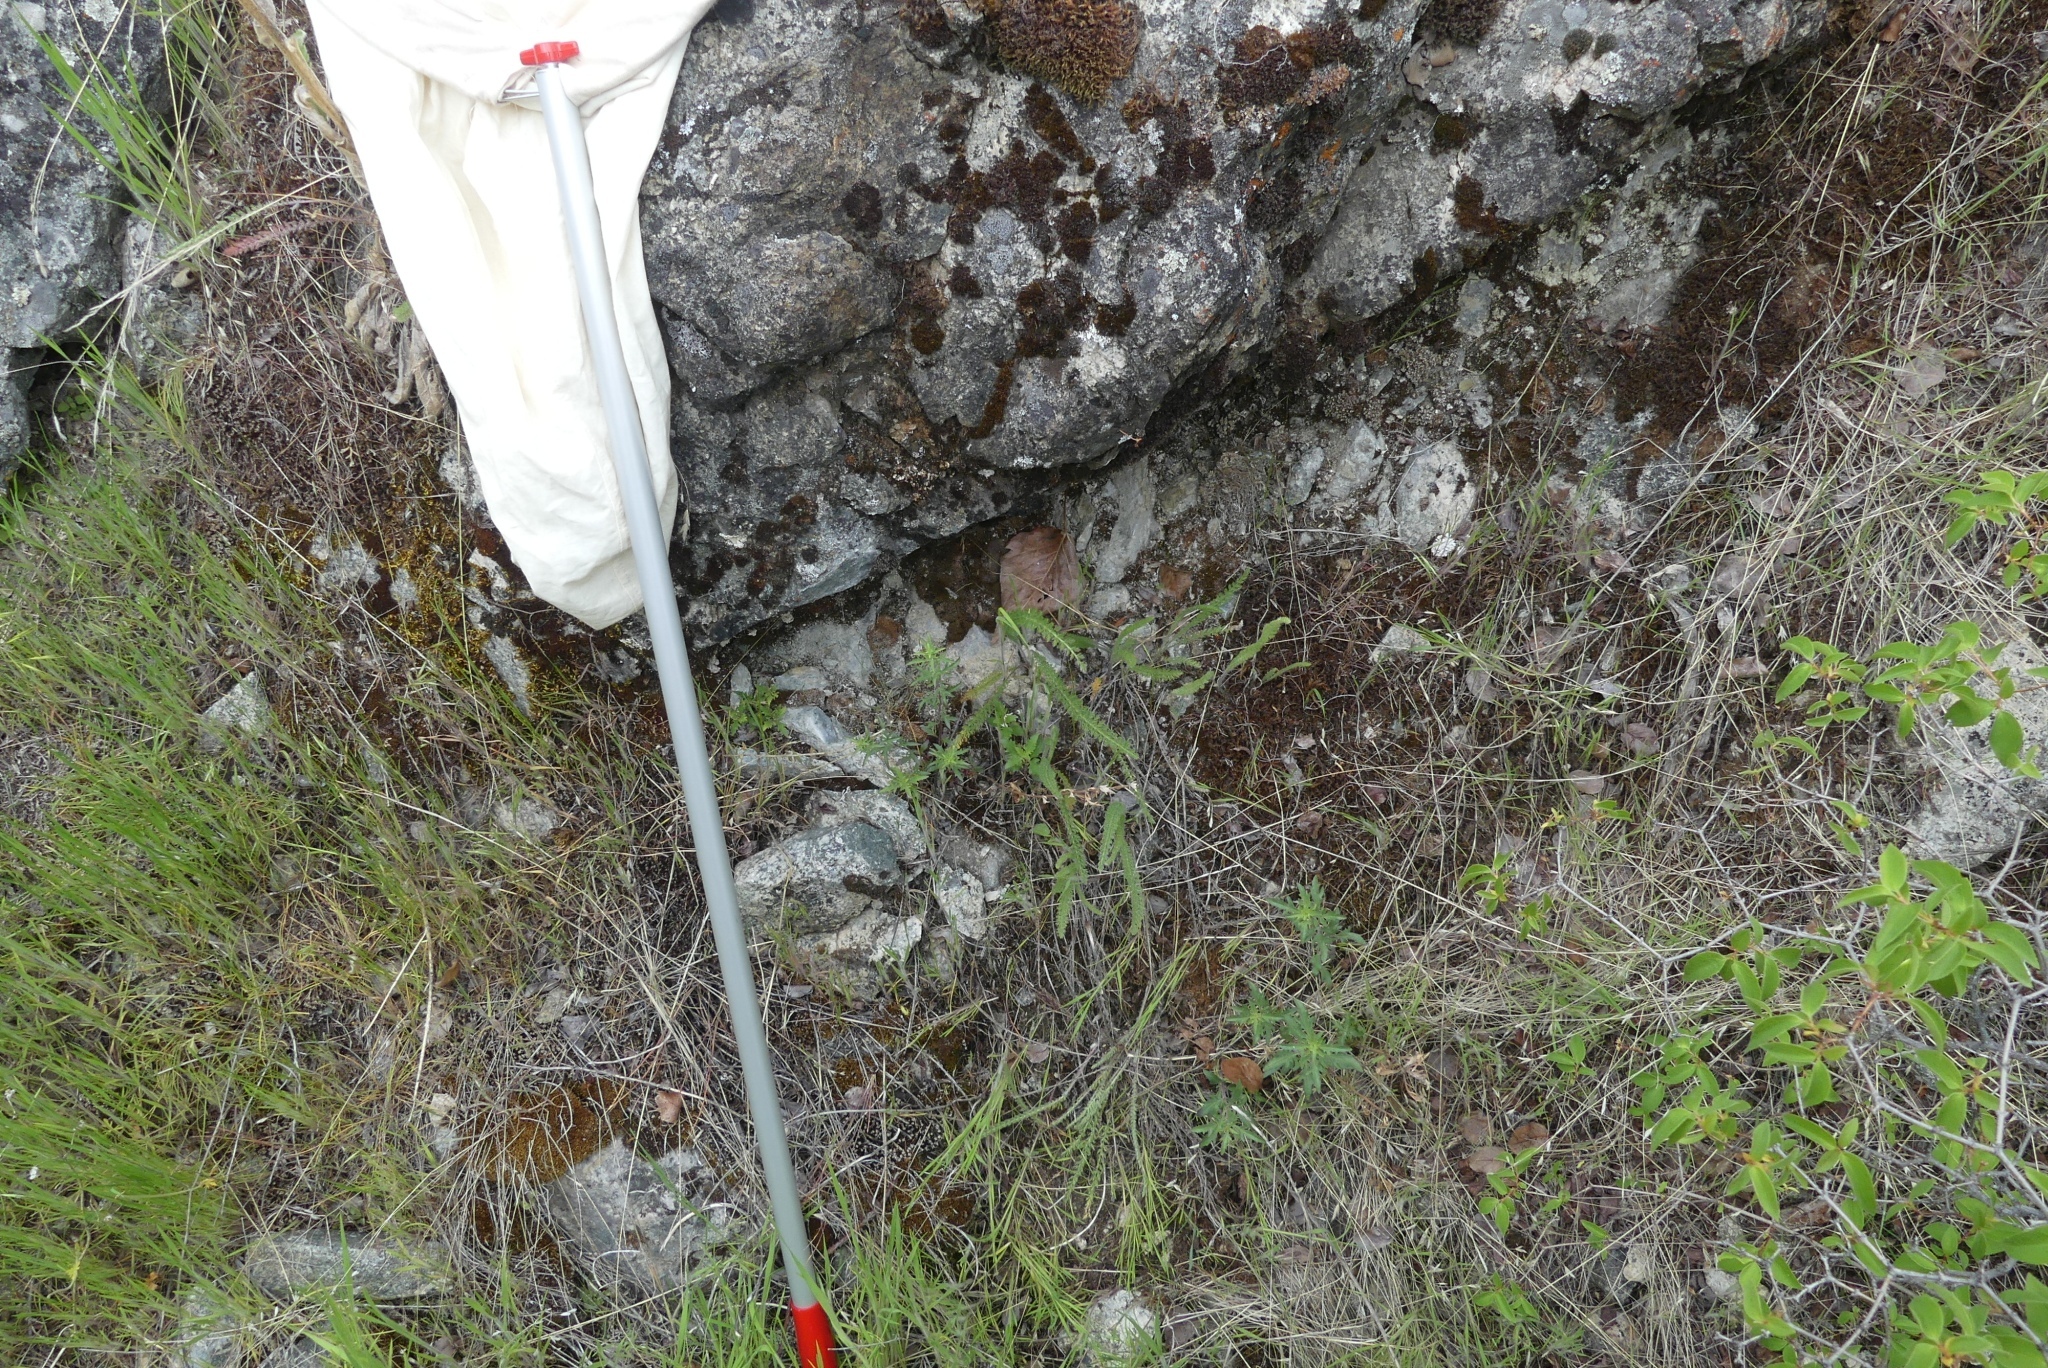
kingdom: Plantae
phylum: Tracheophyta
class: Magnoliopsida
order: Asterales
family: Asteraceae
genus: Achillea
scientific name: Achillea millefolium
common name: Yarrow
